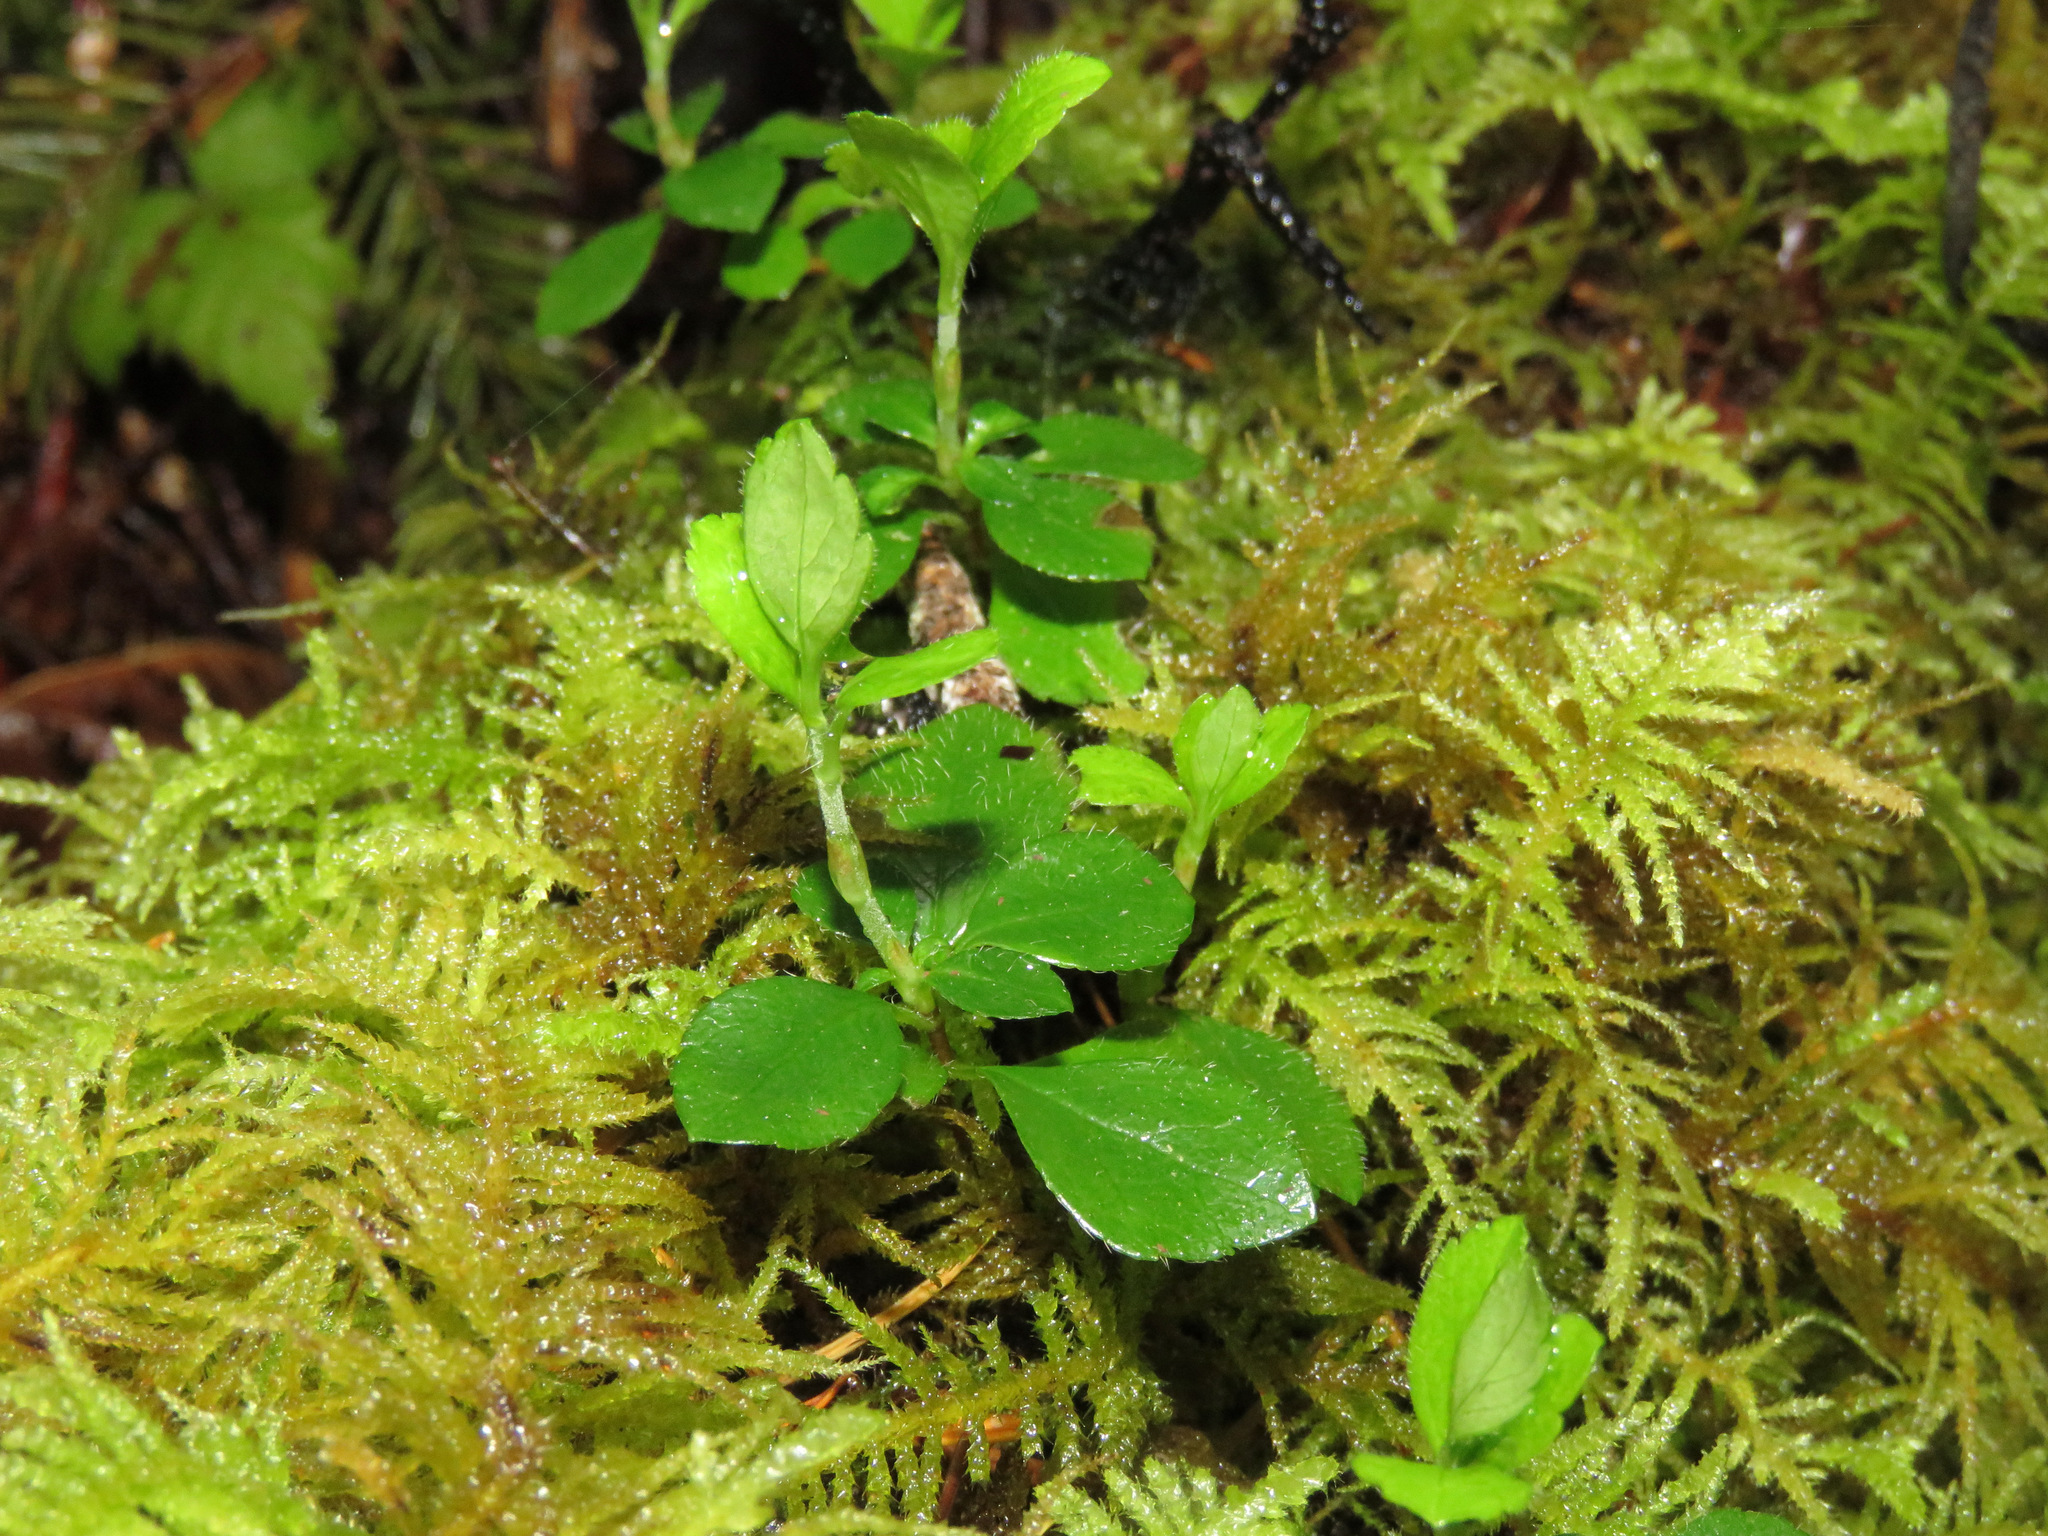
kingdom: Plantae
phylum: Tracheophyta
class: Magnoliopsida
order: Ericales
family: Ericaceae
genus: Moneses
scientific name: Moneses uniflora
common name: One-flowered wintergreen
